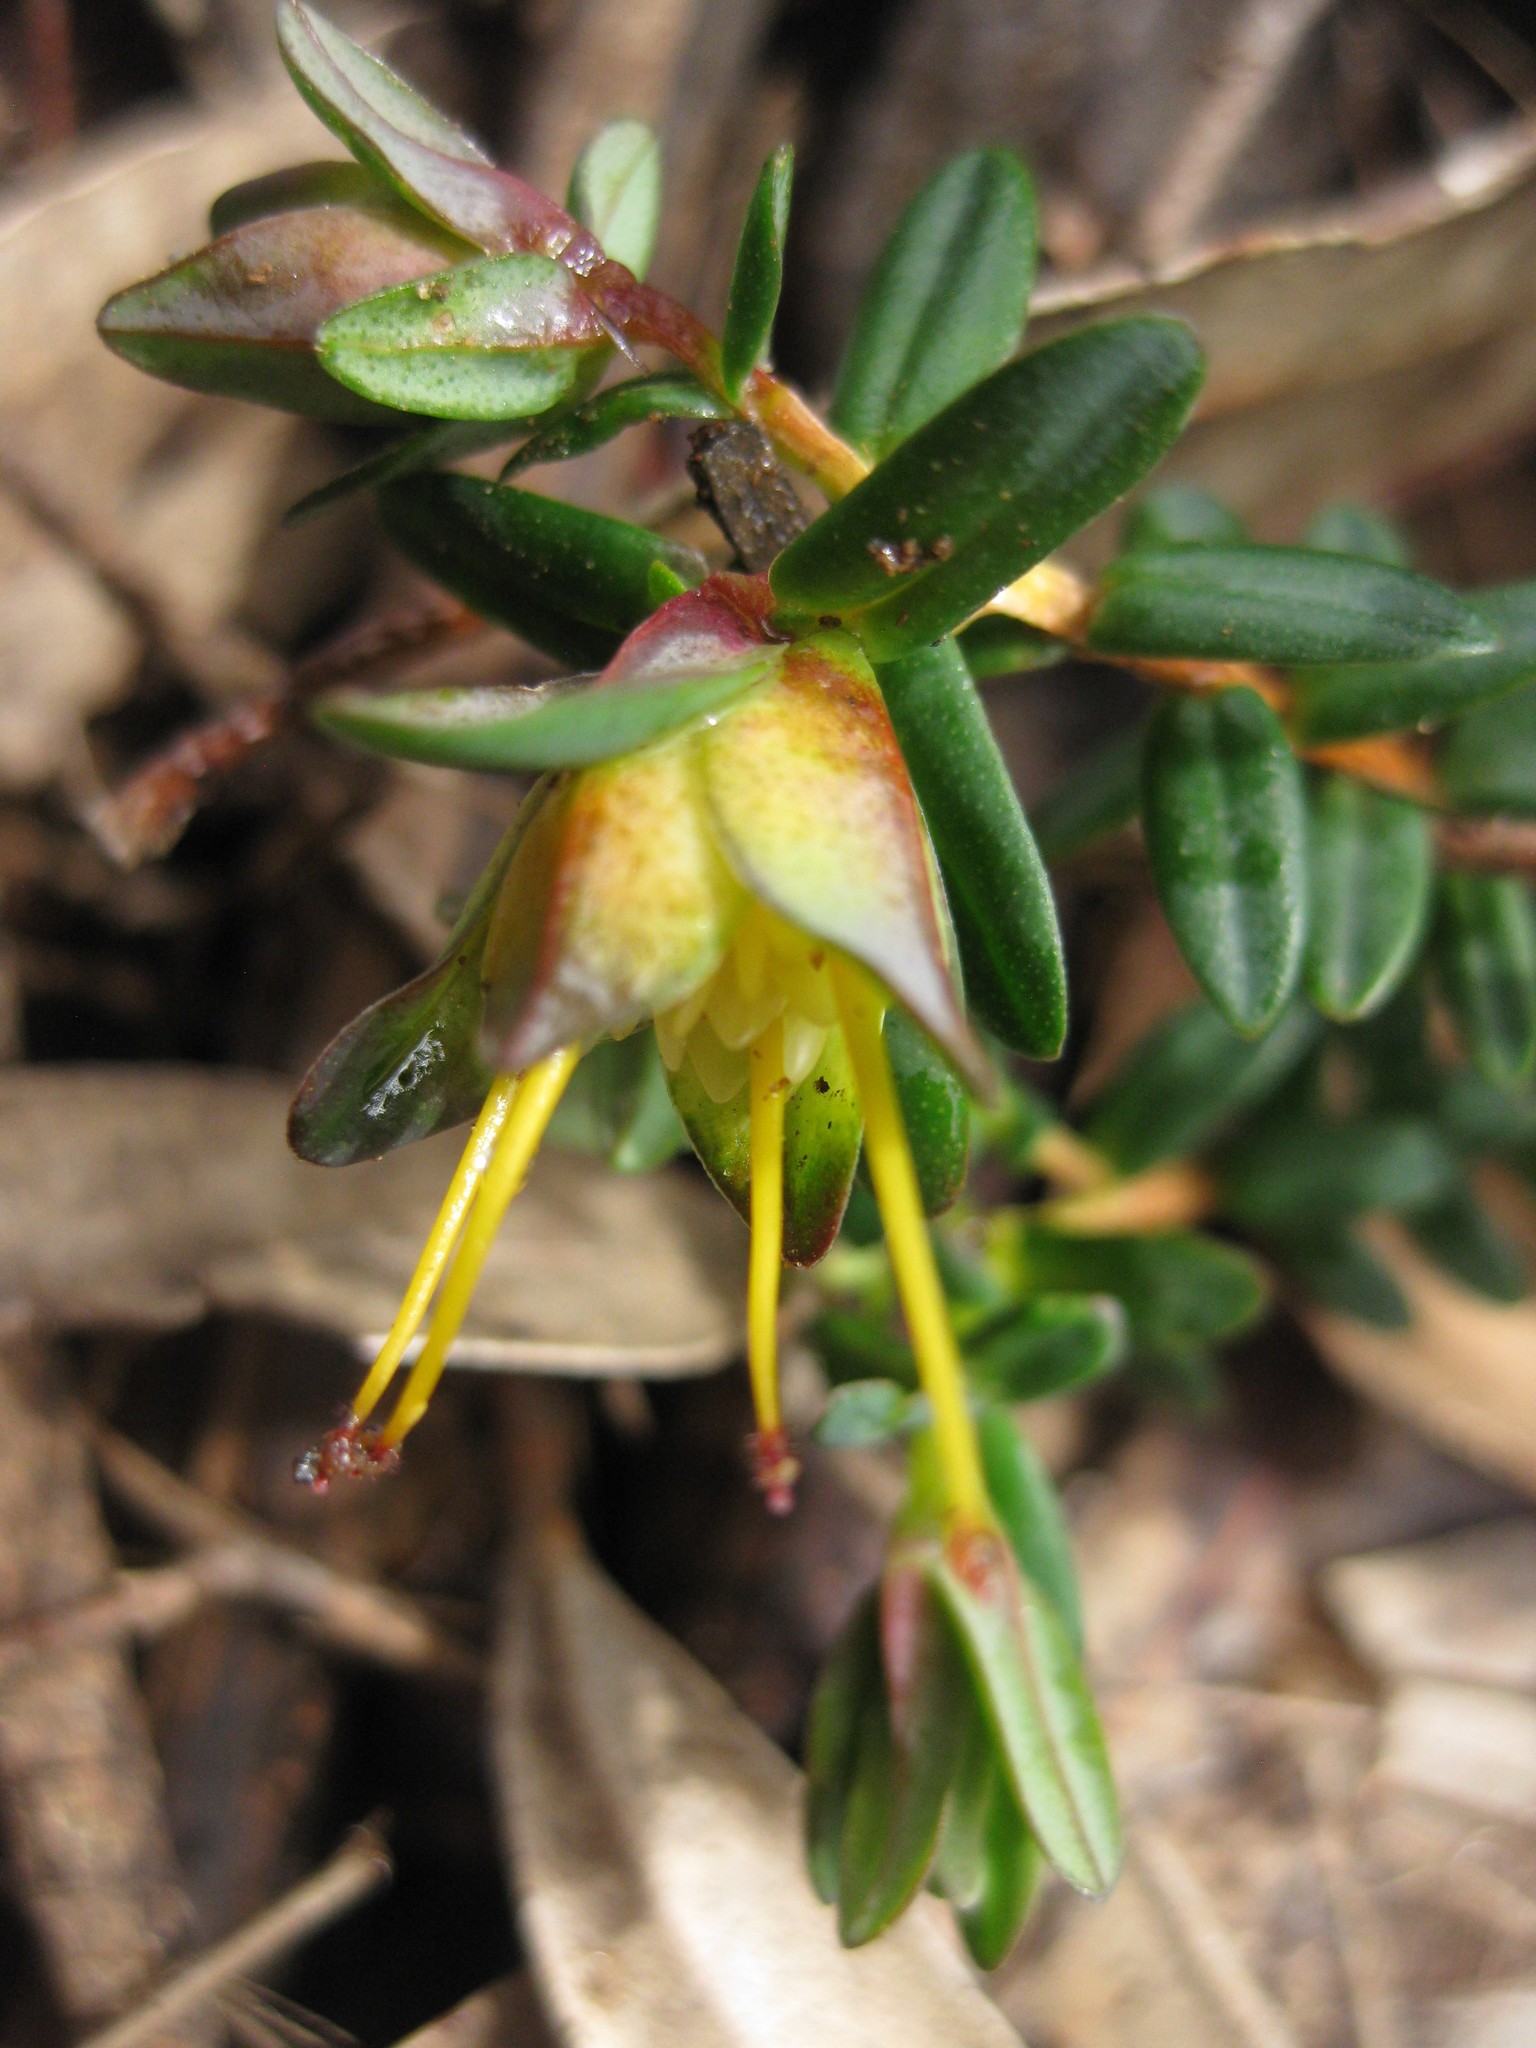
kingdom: Plantae
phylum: Tracheophyta
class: Magnoliopsida
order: Myrtales
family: Myrtaceae
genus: Darwinia
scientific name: Darwinia citriodora
